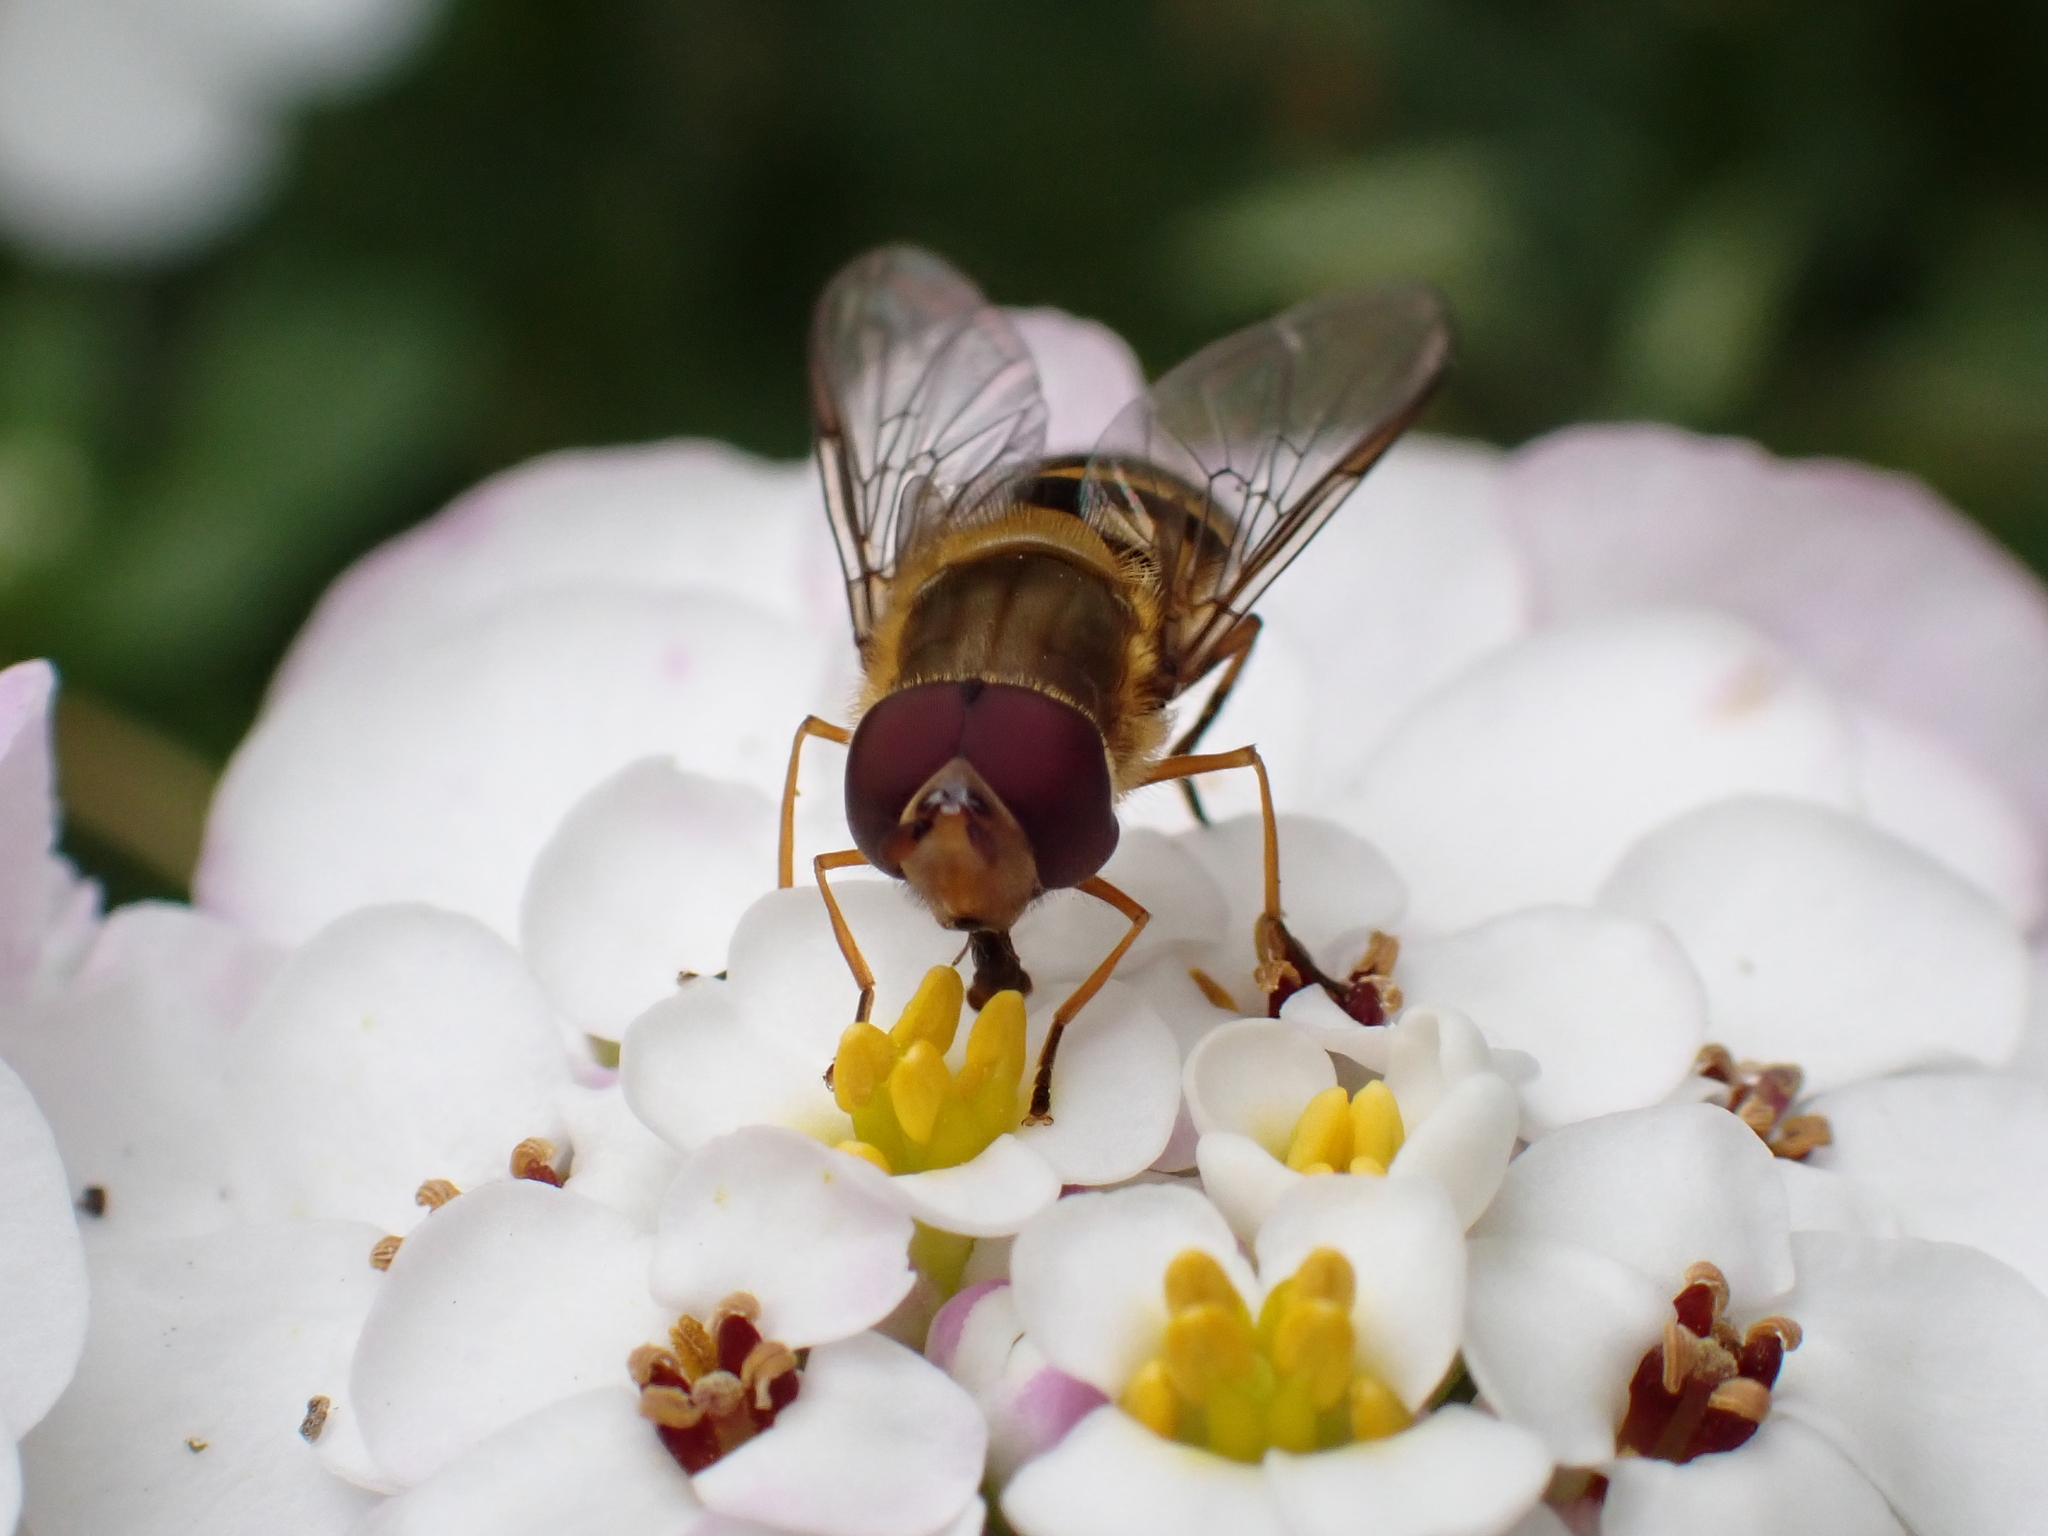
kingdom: Animalia
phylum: Arthropoda
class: Insecta
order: Diptera
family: Syrphidae
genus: Syrphus
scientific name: Syrphus
